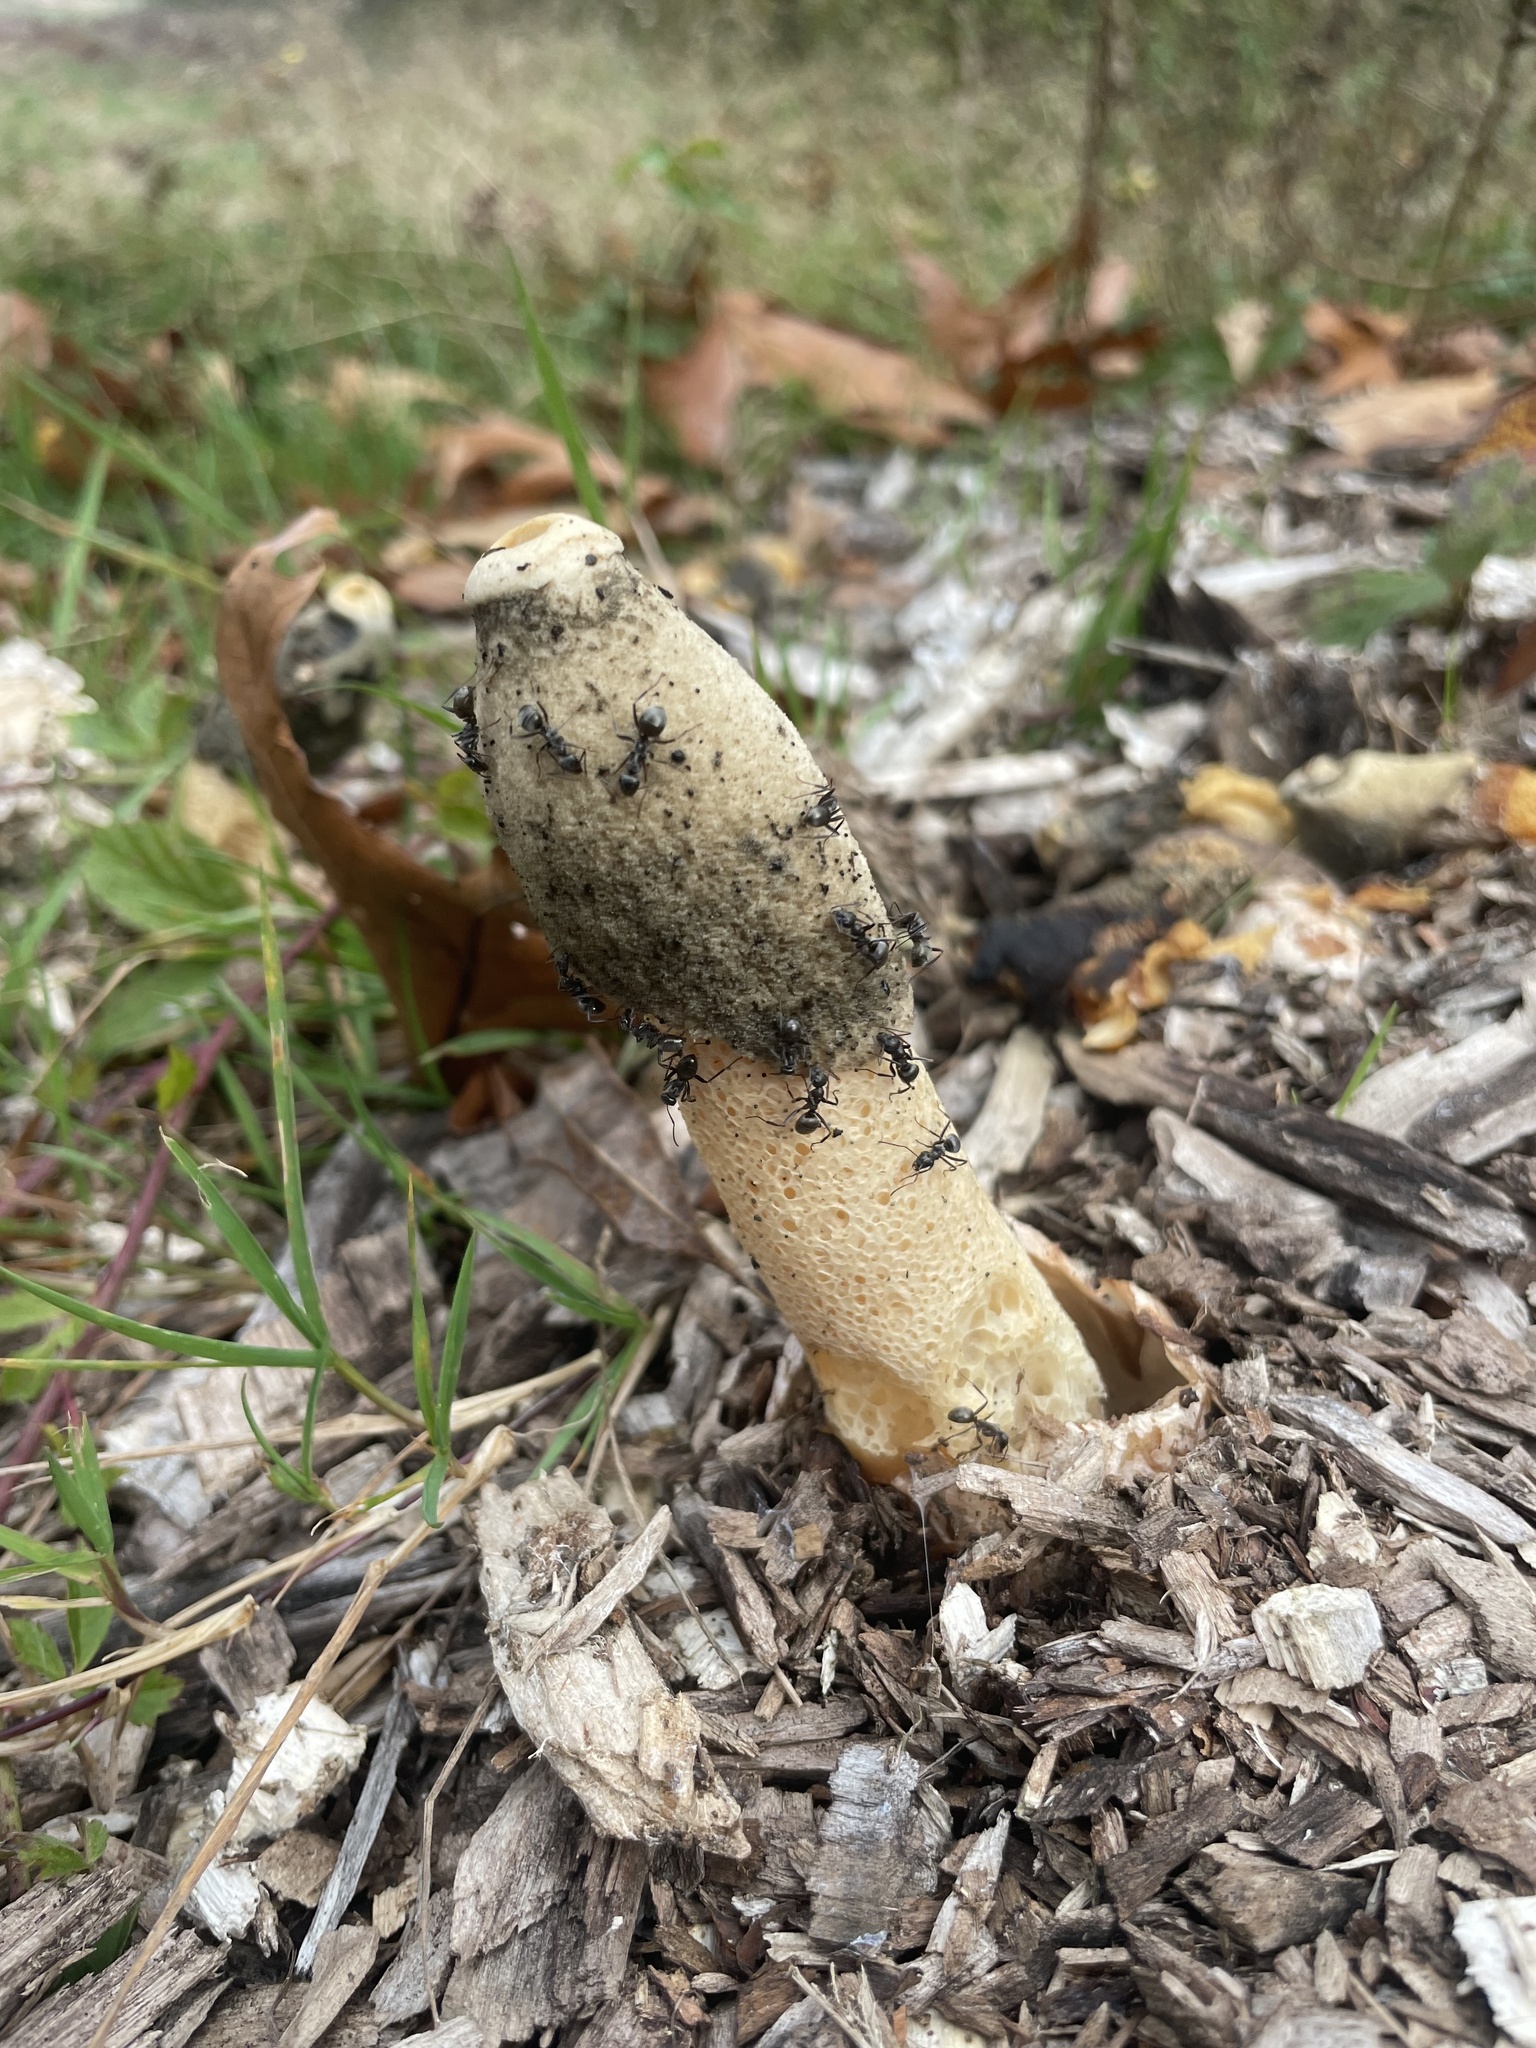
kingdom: Fungi
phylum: Basidiomycota
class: Agaricomycetes
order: Phallales
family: Phallaceae
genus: Phallus
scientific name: Phallus ravenelii
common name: Ravenel's stinkhorn
